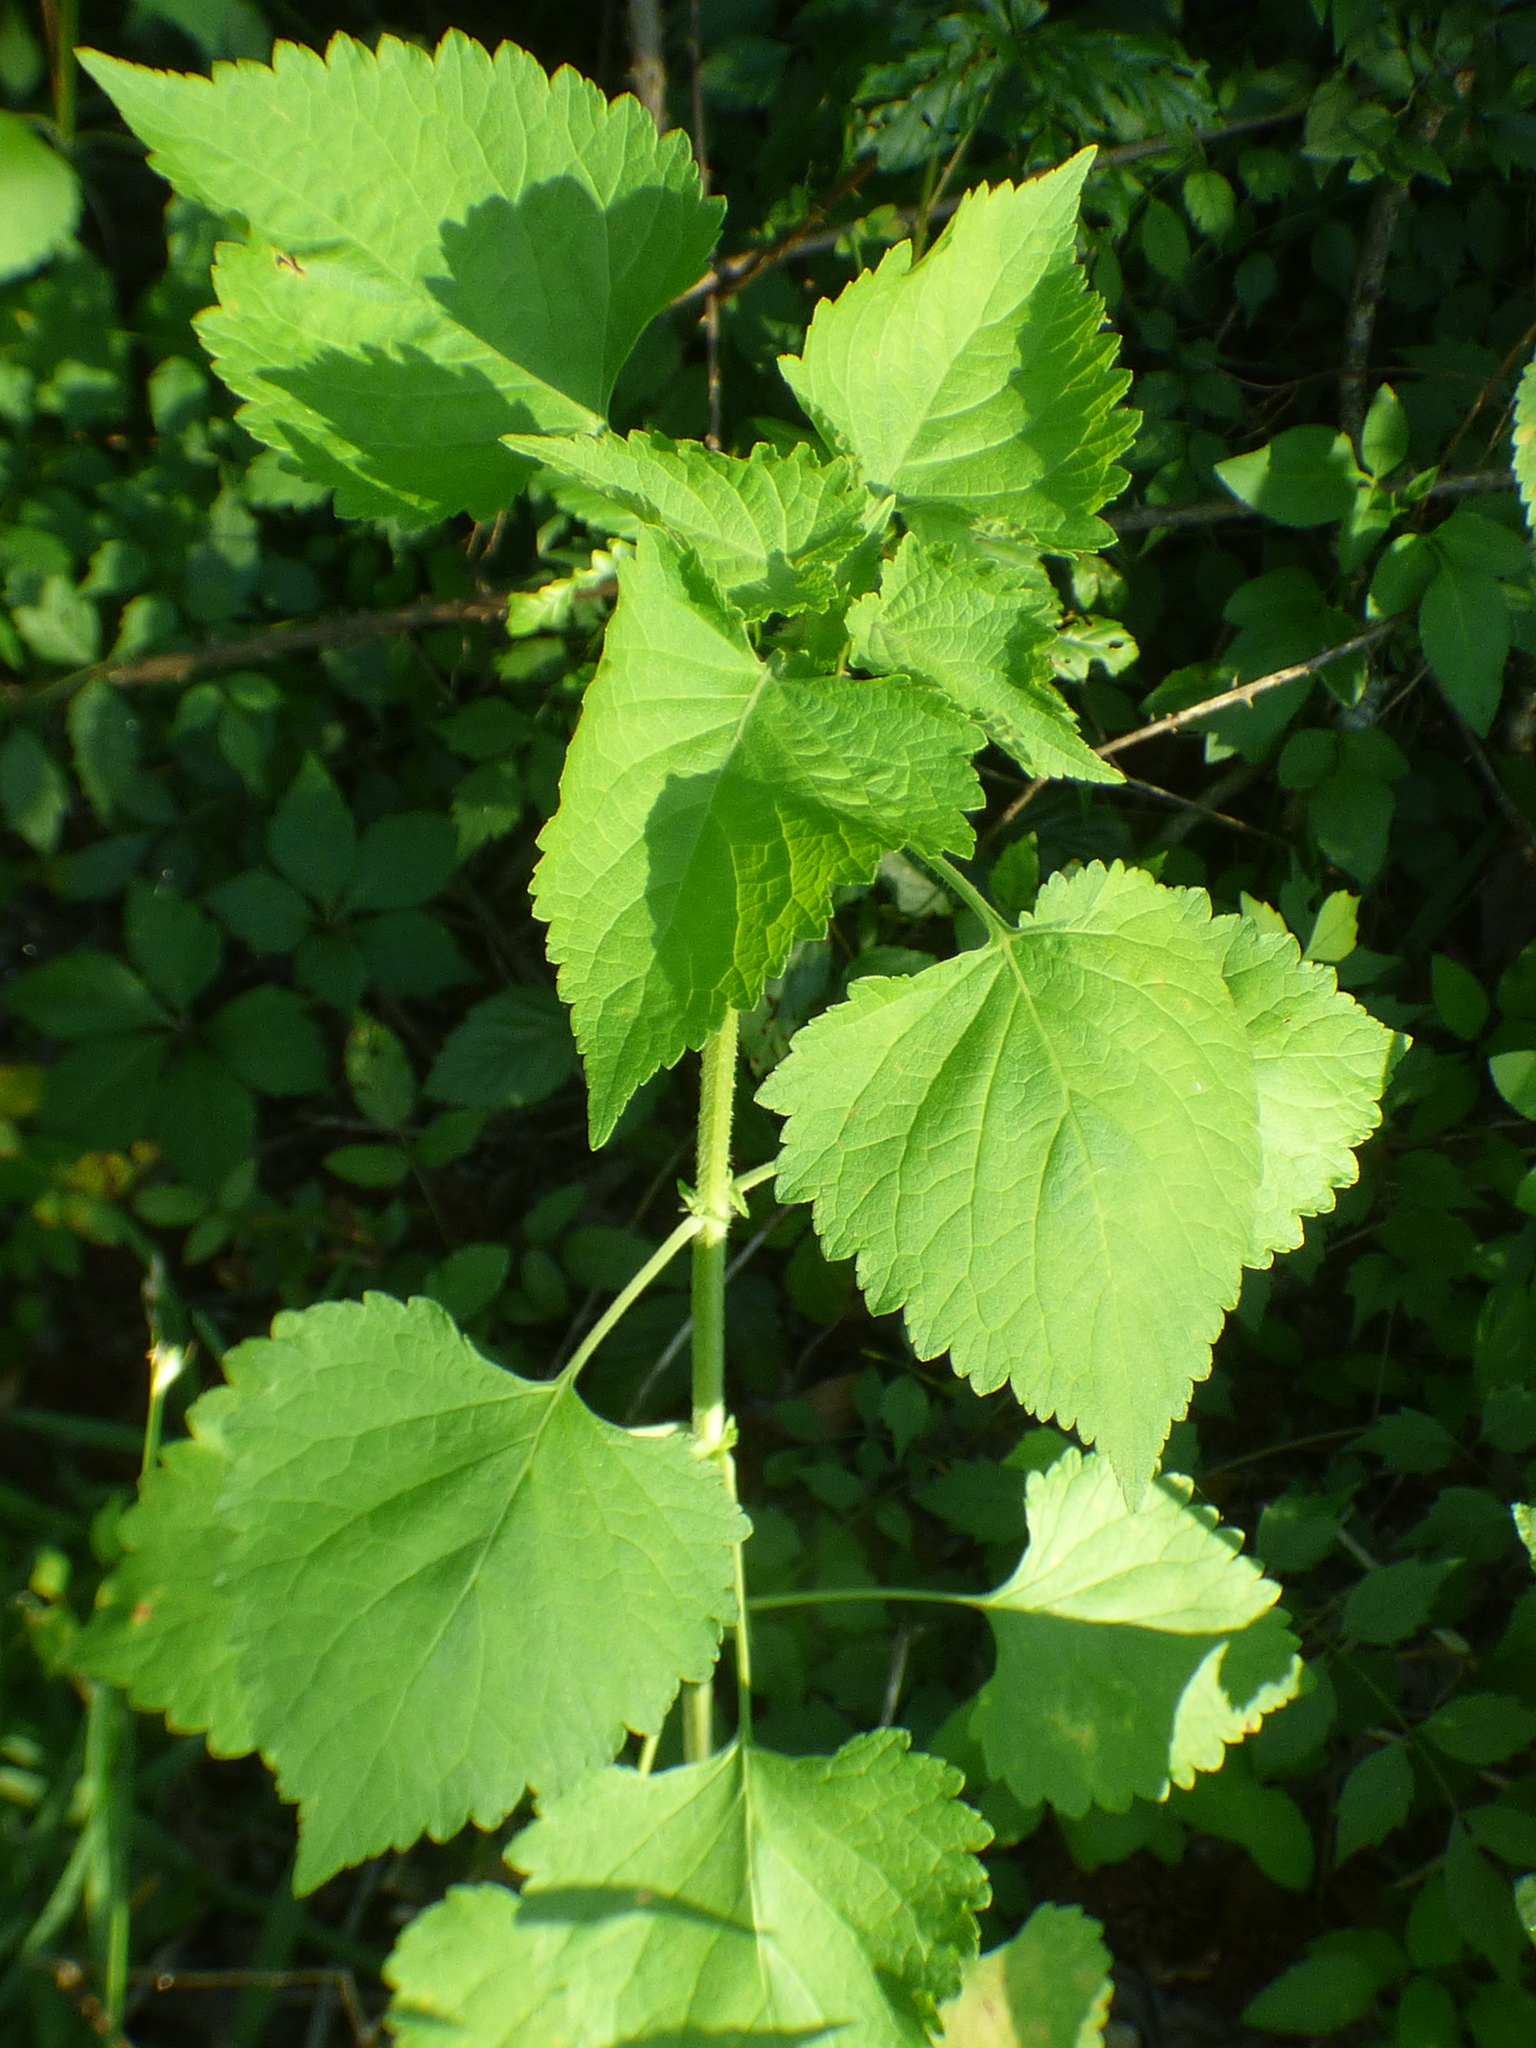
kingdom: Plantae
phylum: Tracheophyta
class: Magnoliopsida
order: Lamiales
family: Lamiaceae
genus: Cantinoa
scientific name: Cantinoa mutabilis
